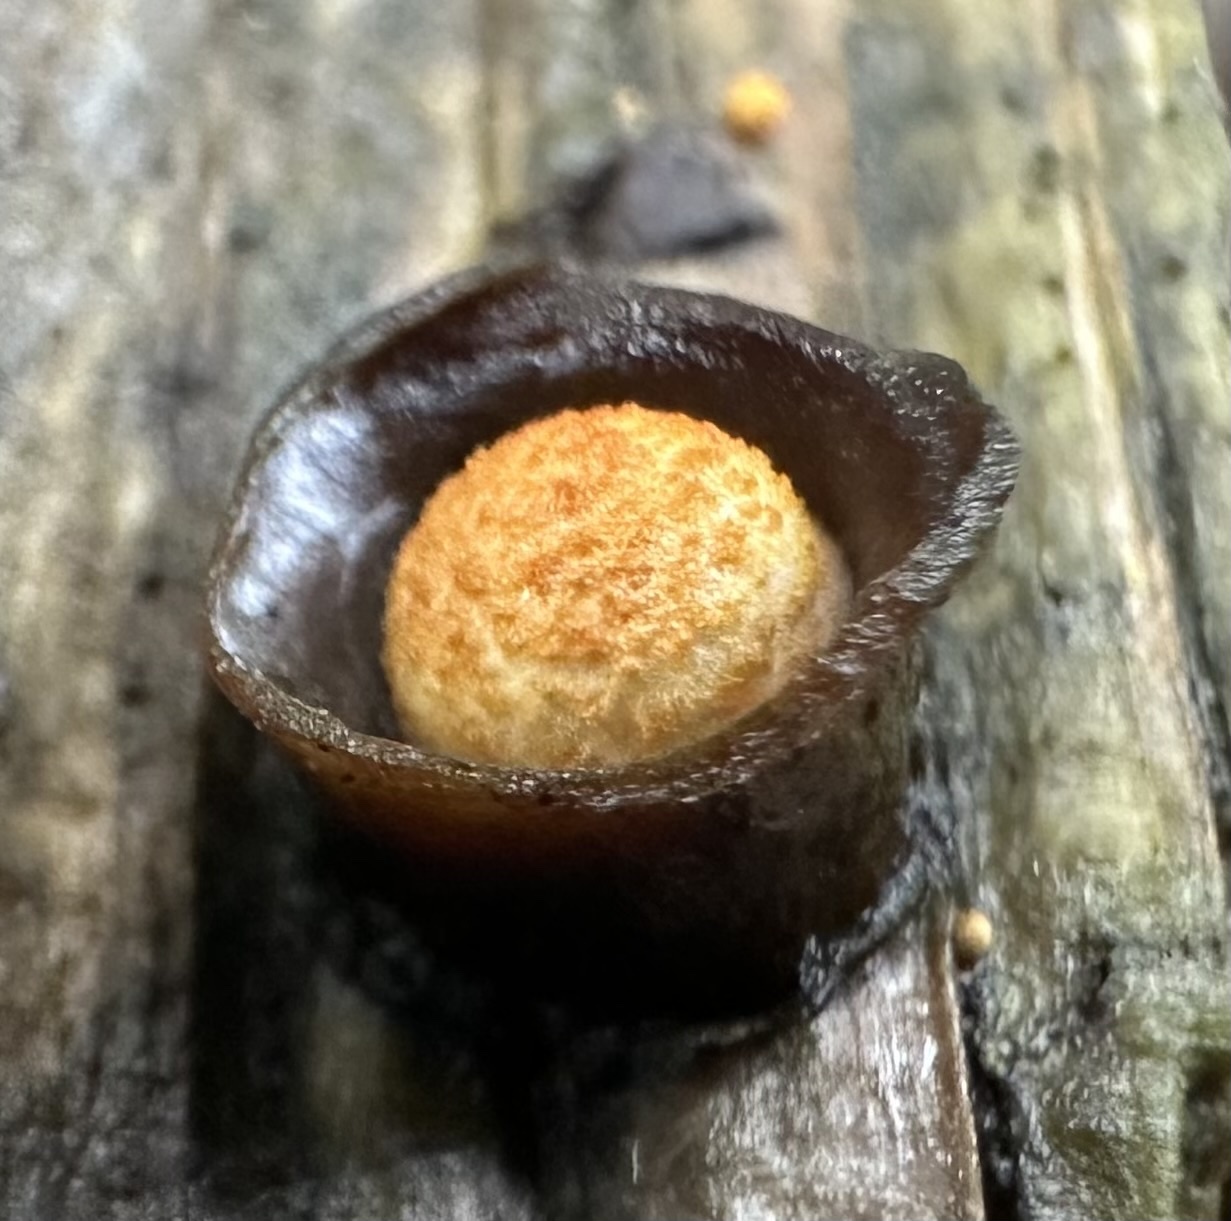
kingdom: Fungi
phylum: Basidiomycota
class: Agaricomycetes
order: Agaricales
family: Nidulariaceae
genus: Crucibulum
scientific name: Crucibulum laeve
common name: Common bird's nest
